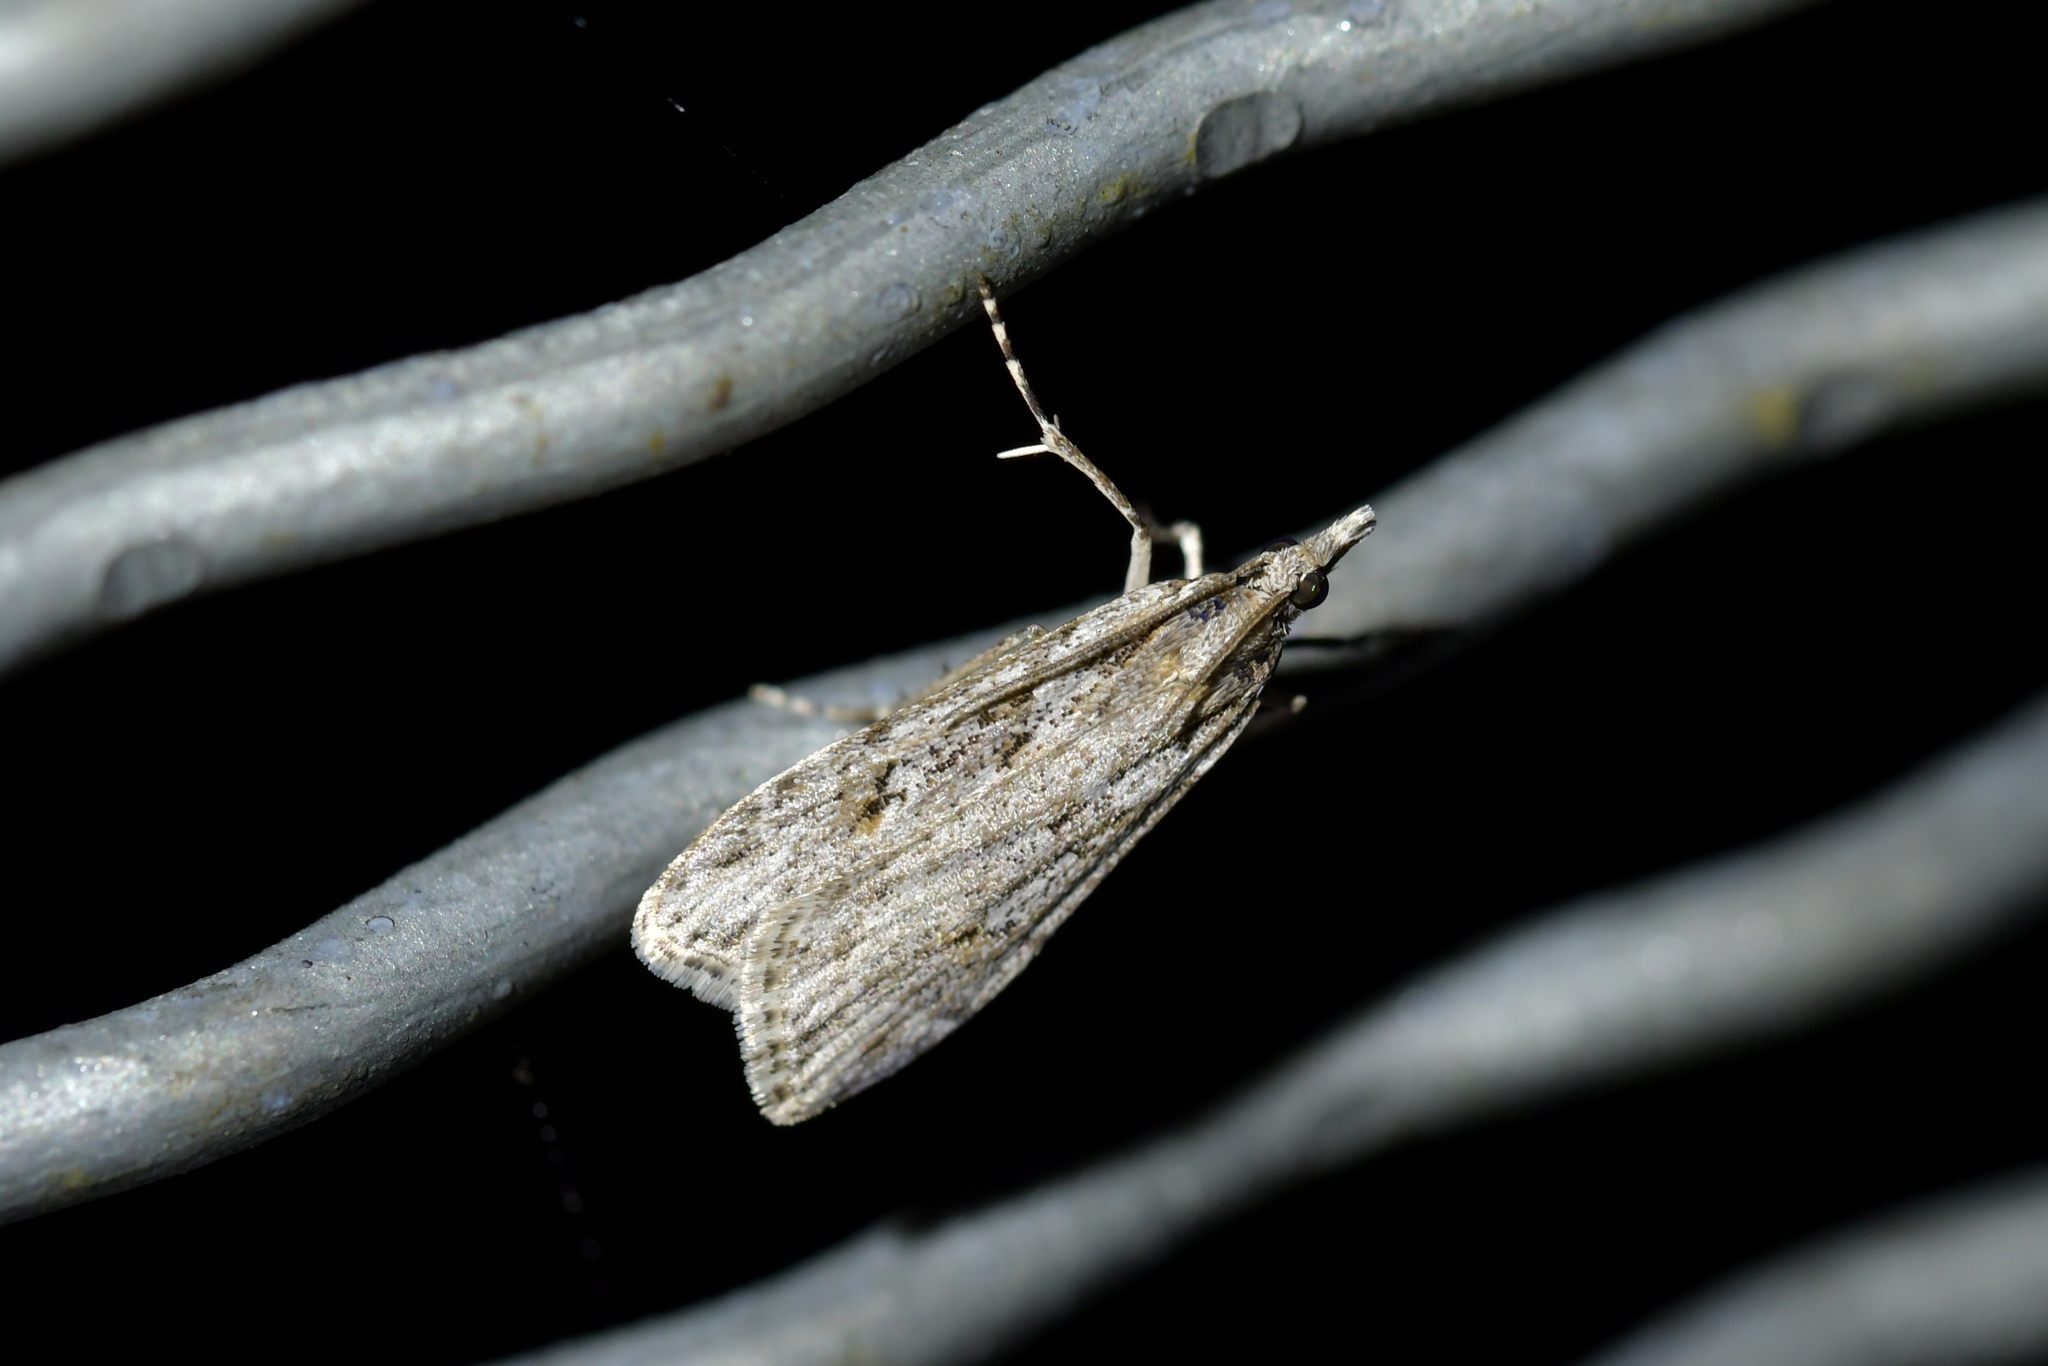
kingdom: Animalia
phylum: Arthropoda
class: Insecta
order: Lepidoptera
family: Crambidae
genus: Scoparia
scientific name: Scoparia chalicodes
